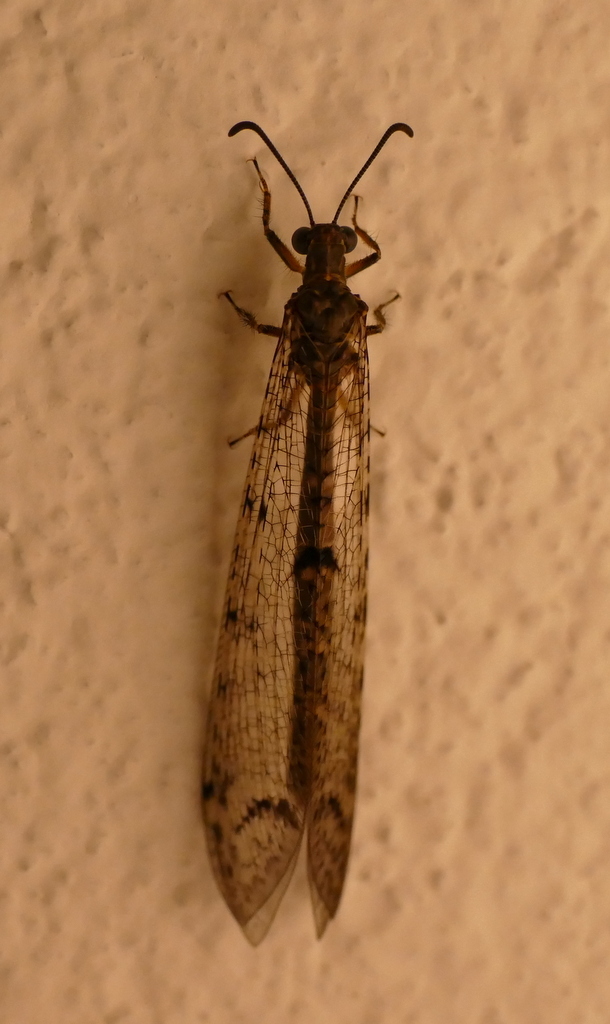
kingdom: Animalia
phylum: Arthropoda
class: Insecta
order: Neuroptera
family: Myrmeleontidae
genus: Distoleon
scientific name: Distoleon tetragrammicus
